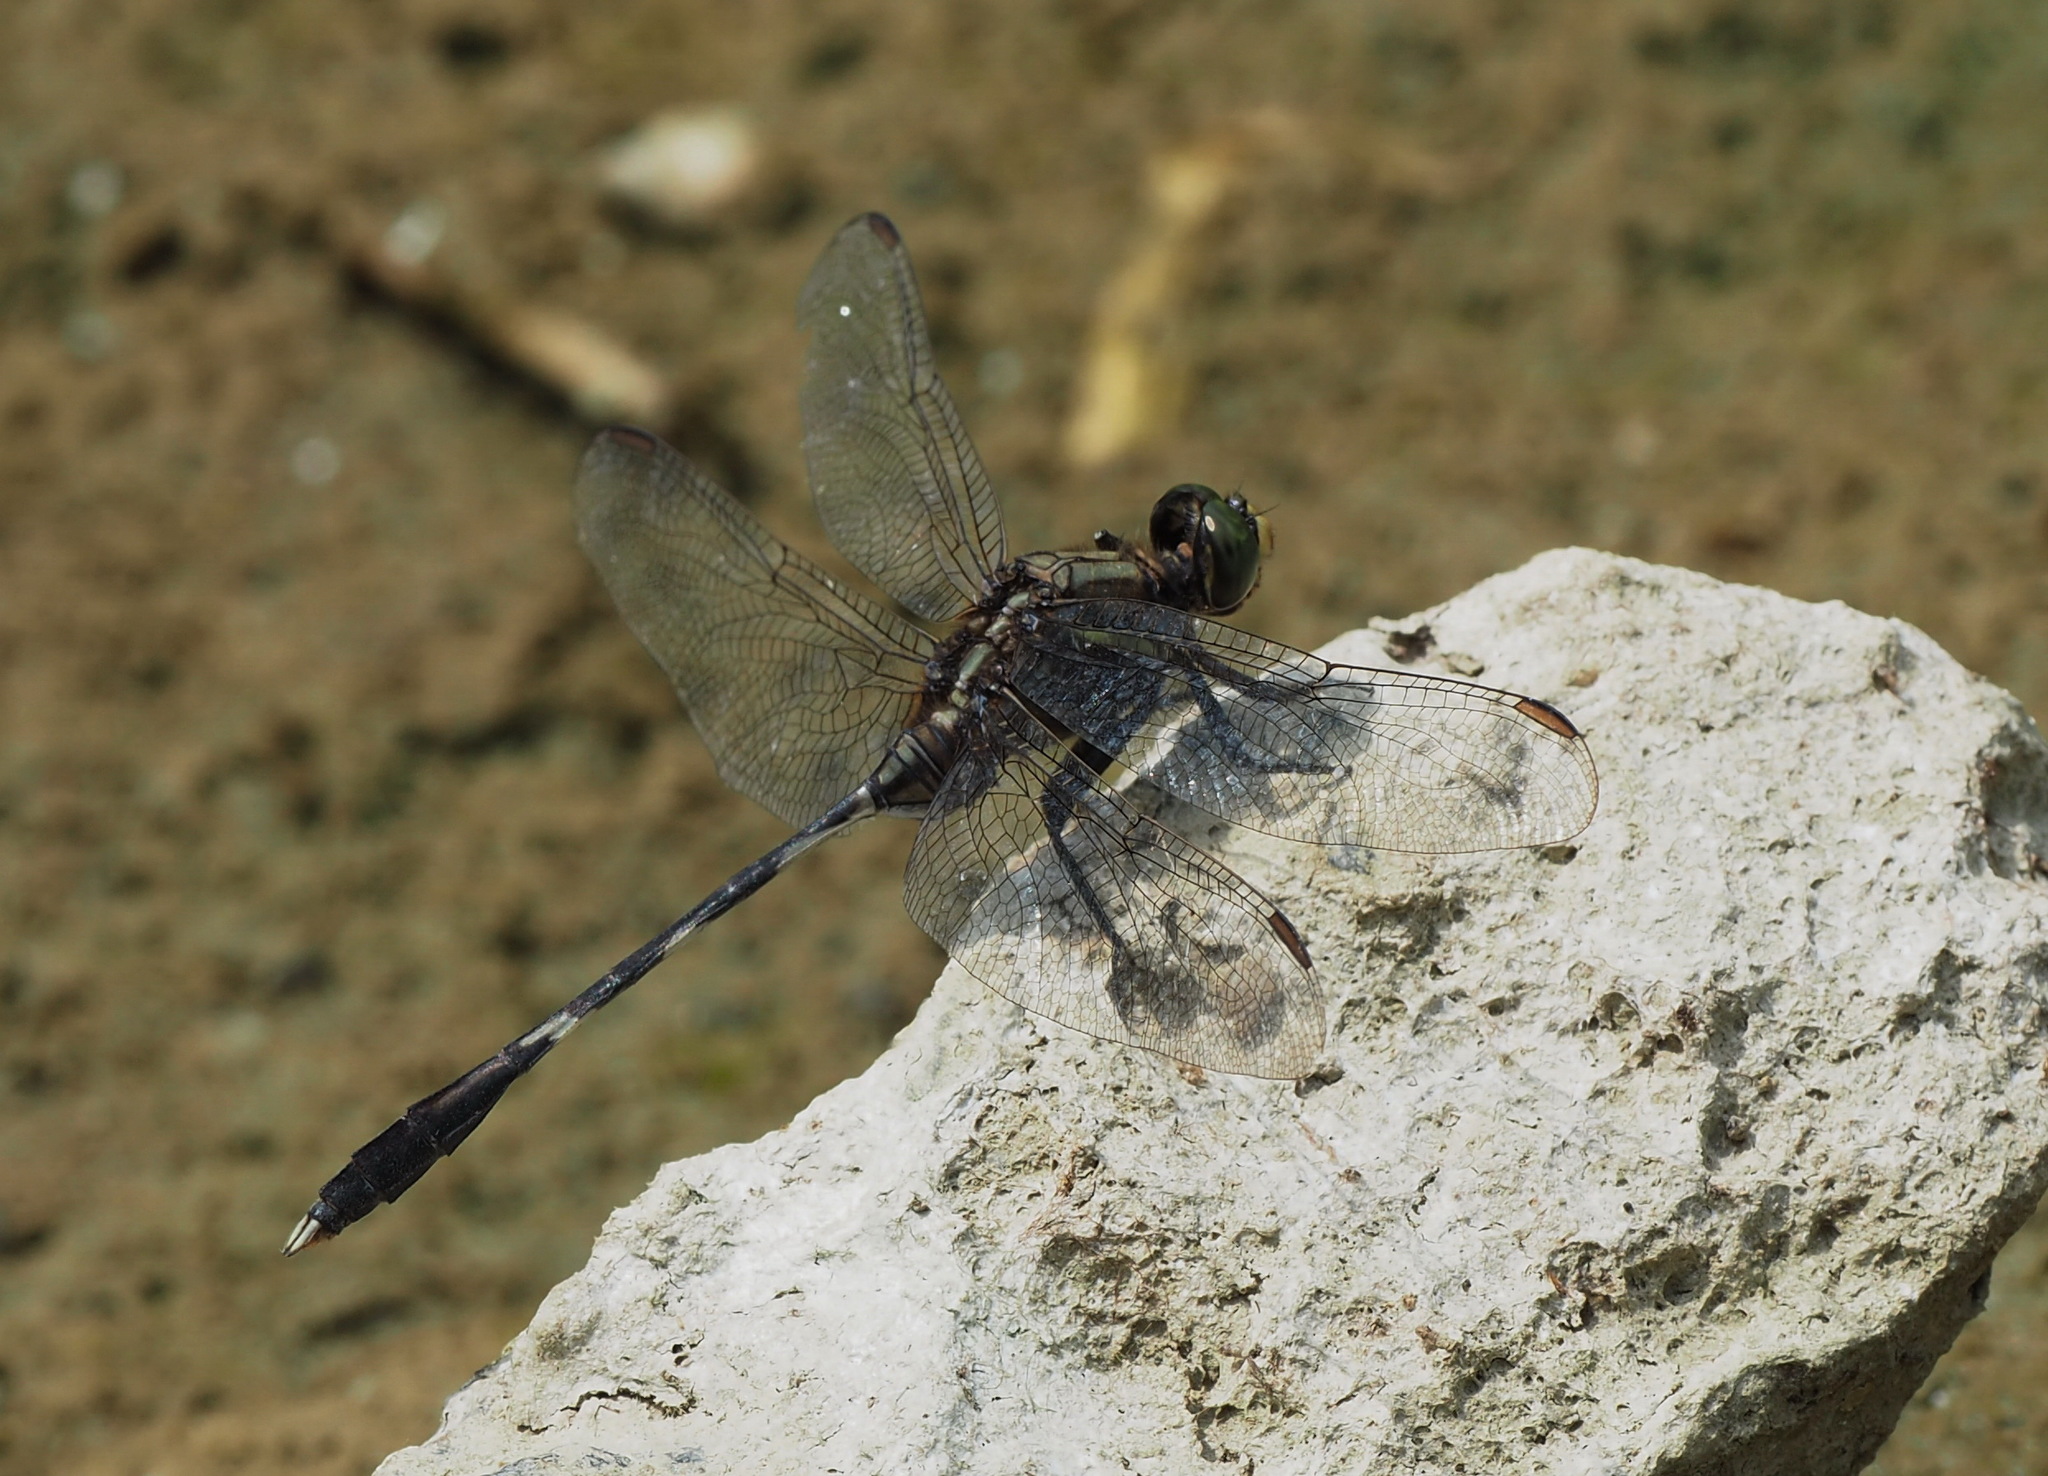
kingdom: Animalia
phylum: Arthropoda
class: Insecta
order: Odonata
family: Libellulidae
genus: Orthetrum
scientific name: Orthetrum sabina
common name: Slender skimmer
